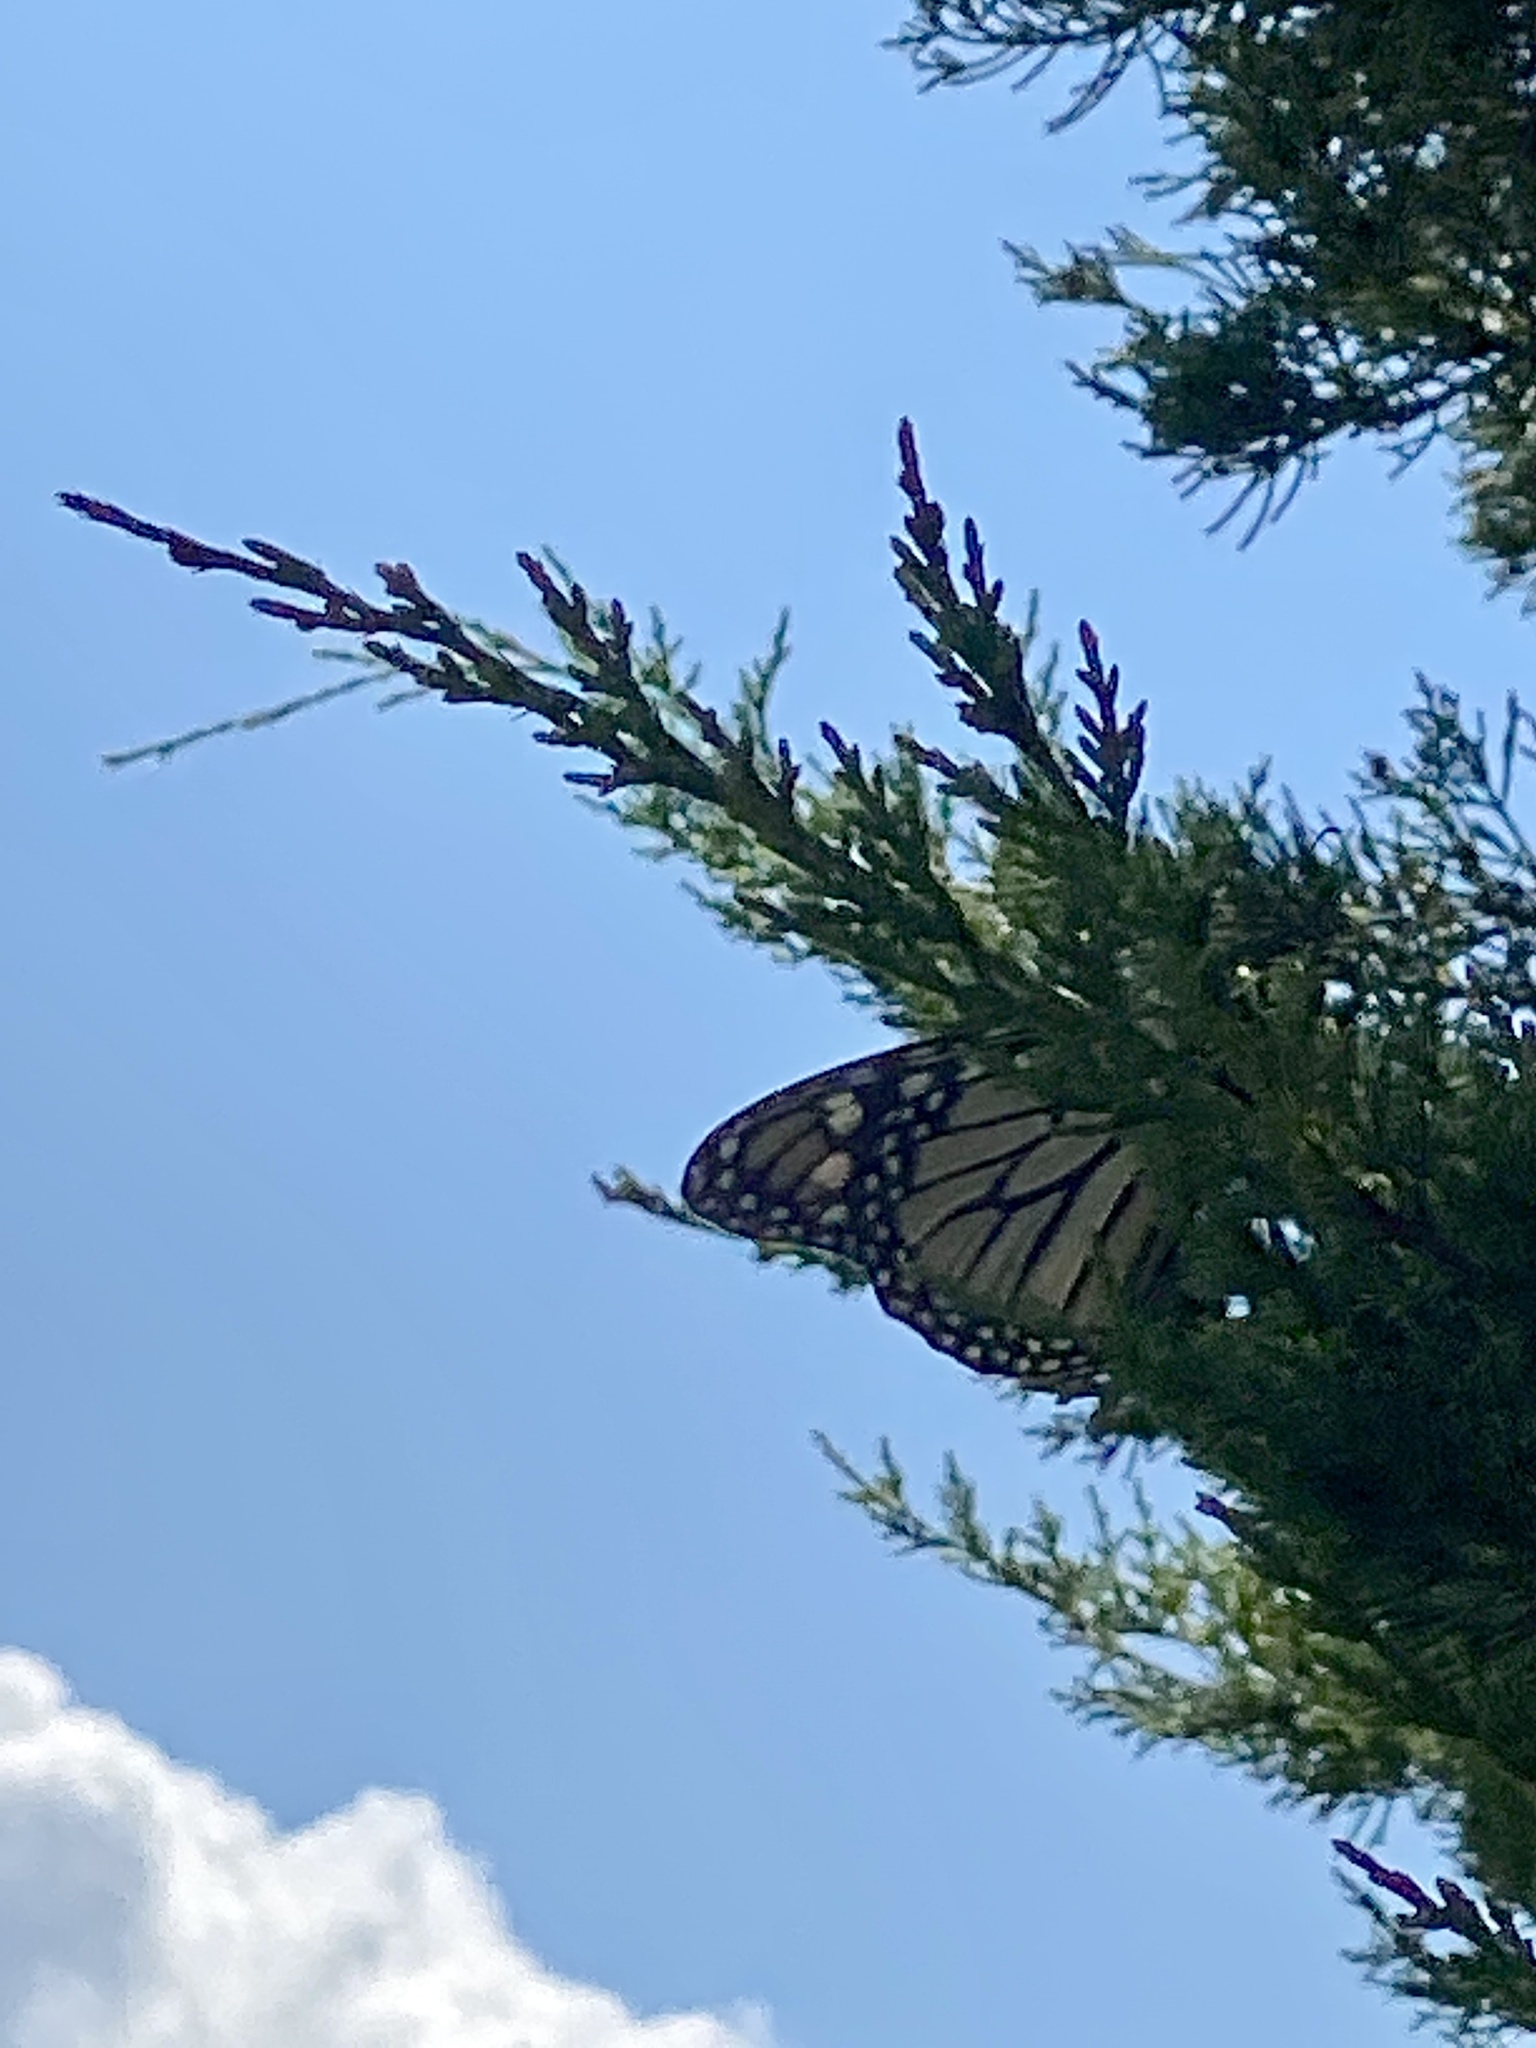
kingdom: Animalia
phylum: Arthropoda
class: Insecta
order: Lepidoptera
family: Nymphalidae
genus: Danaus
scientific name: Danaus plexippus
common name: Monarch
